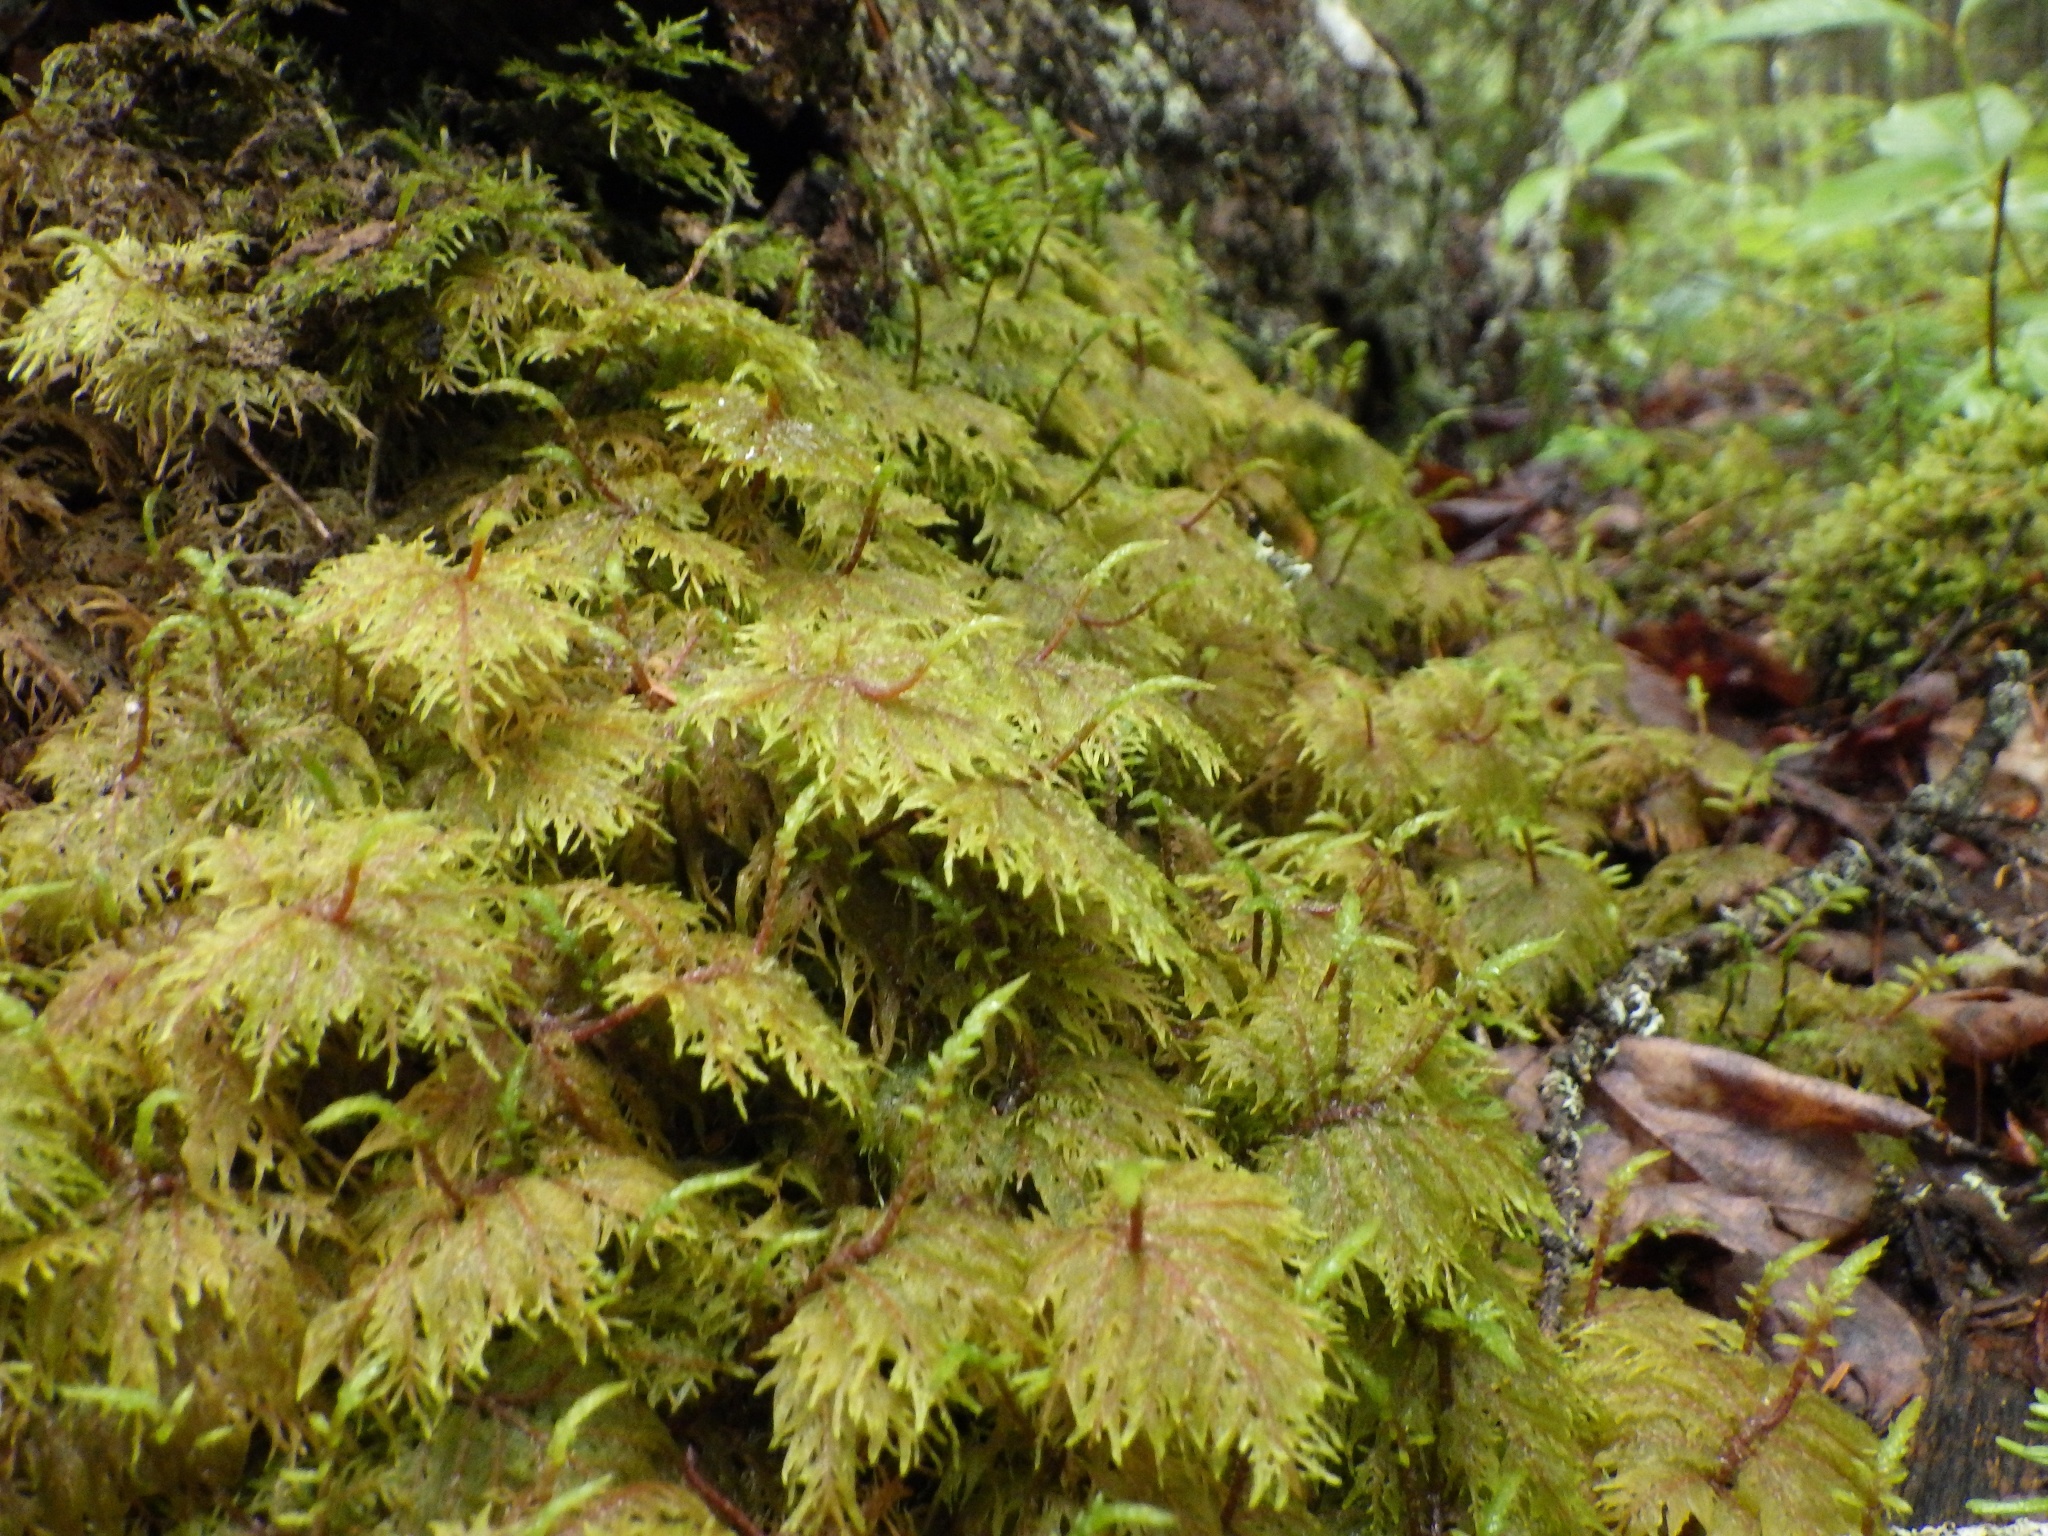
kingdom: Plantae
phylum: Bryophyta
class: Bryopsida
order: Hypnales
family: Hylocomiaceae
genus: Hylocomium
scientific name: Hylocomium splendens
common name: Stairstep moss
